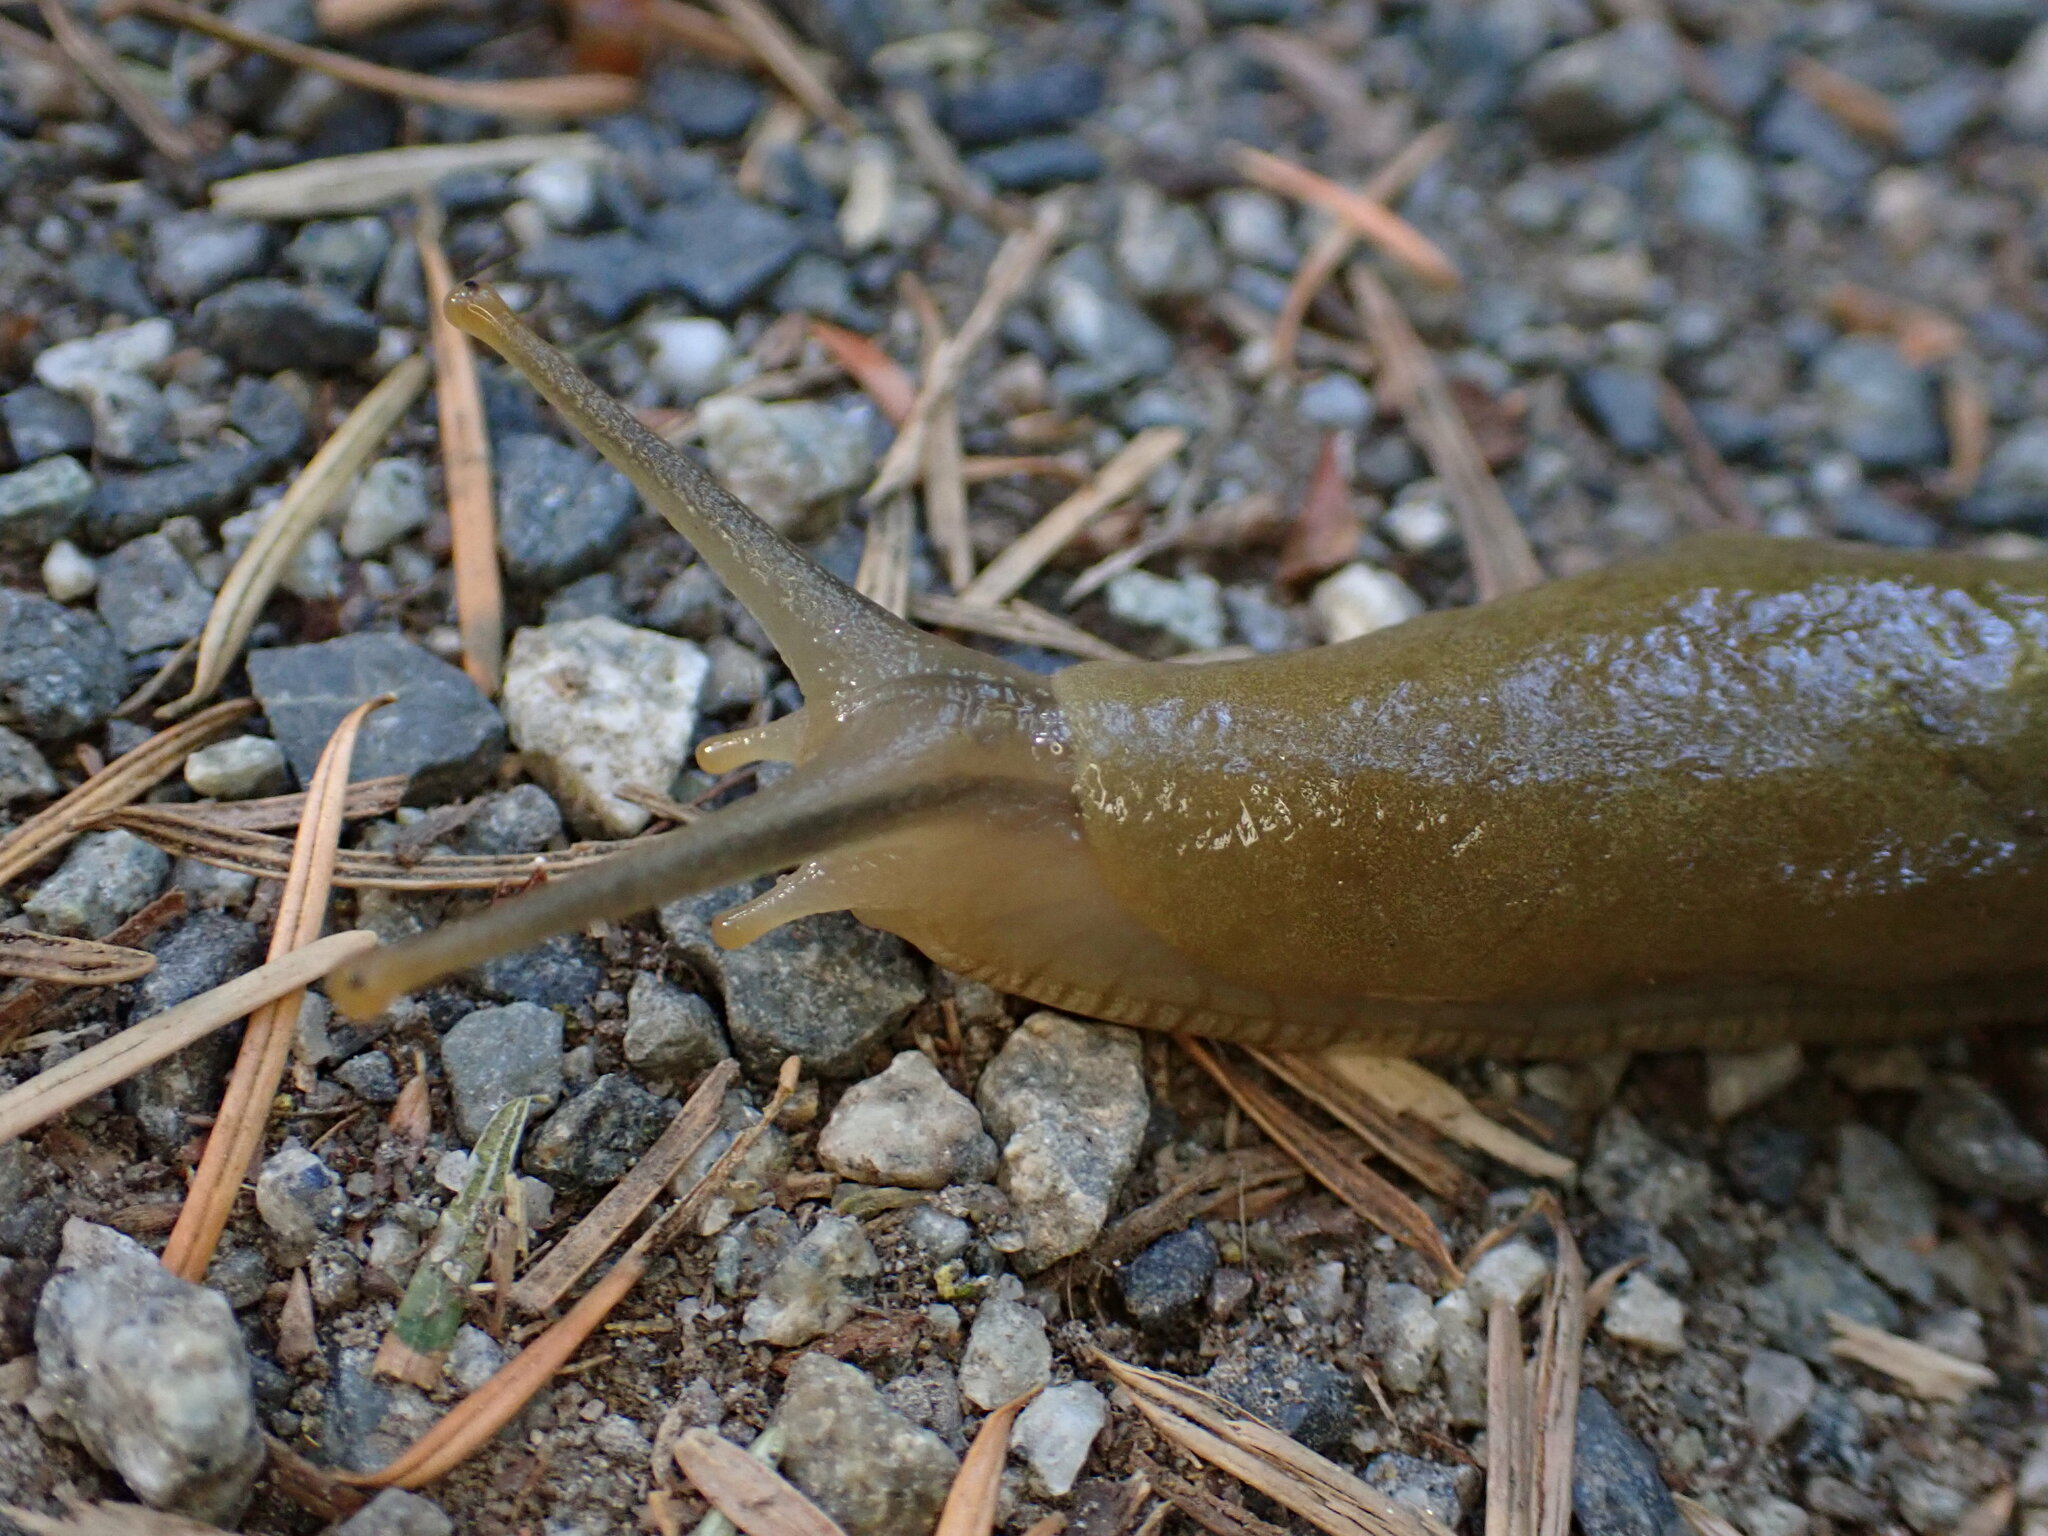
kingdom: Animalia
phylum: Mollusca
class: Gastropoda
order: Stylommatophora
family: Ariolimacidae
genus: Ariolimax
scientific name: Ariolimax columbianus
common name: Pacific banana slug
